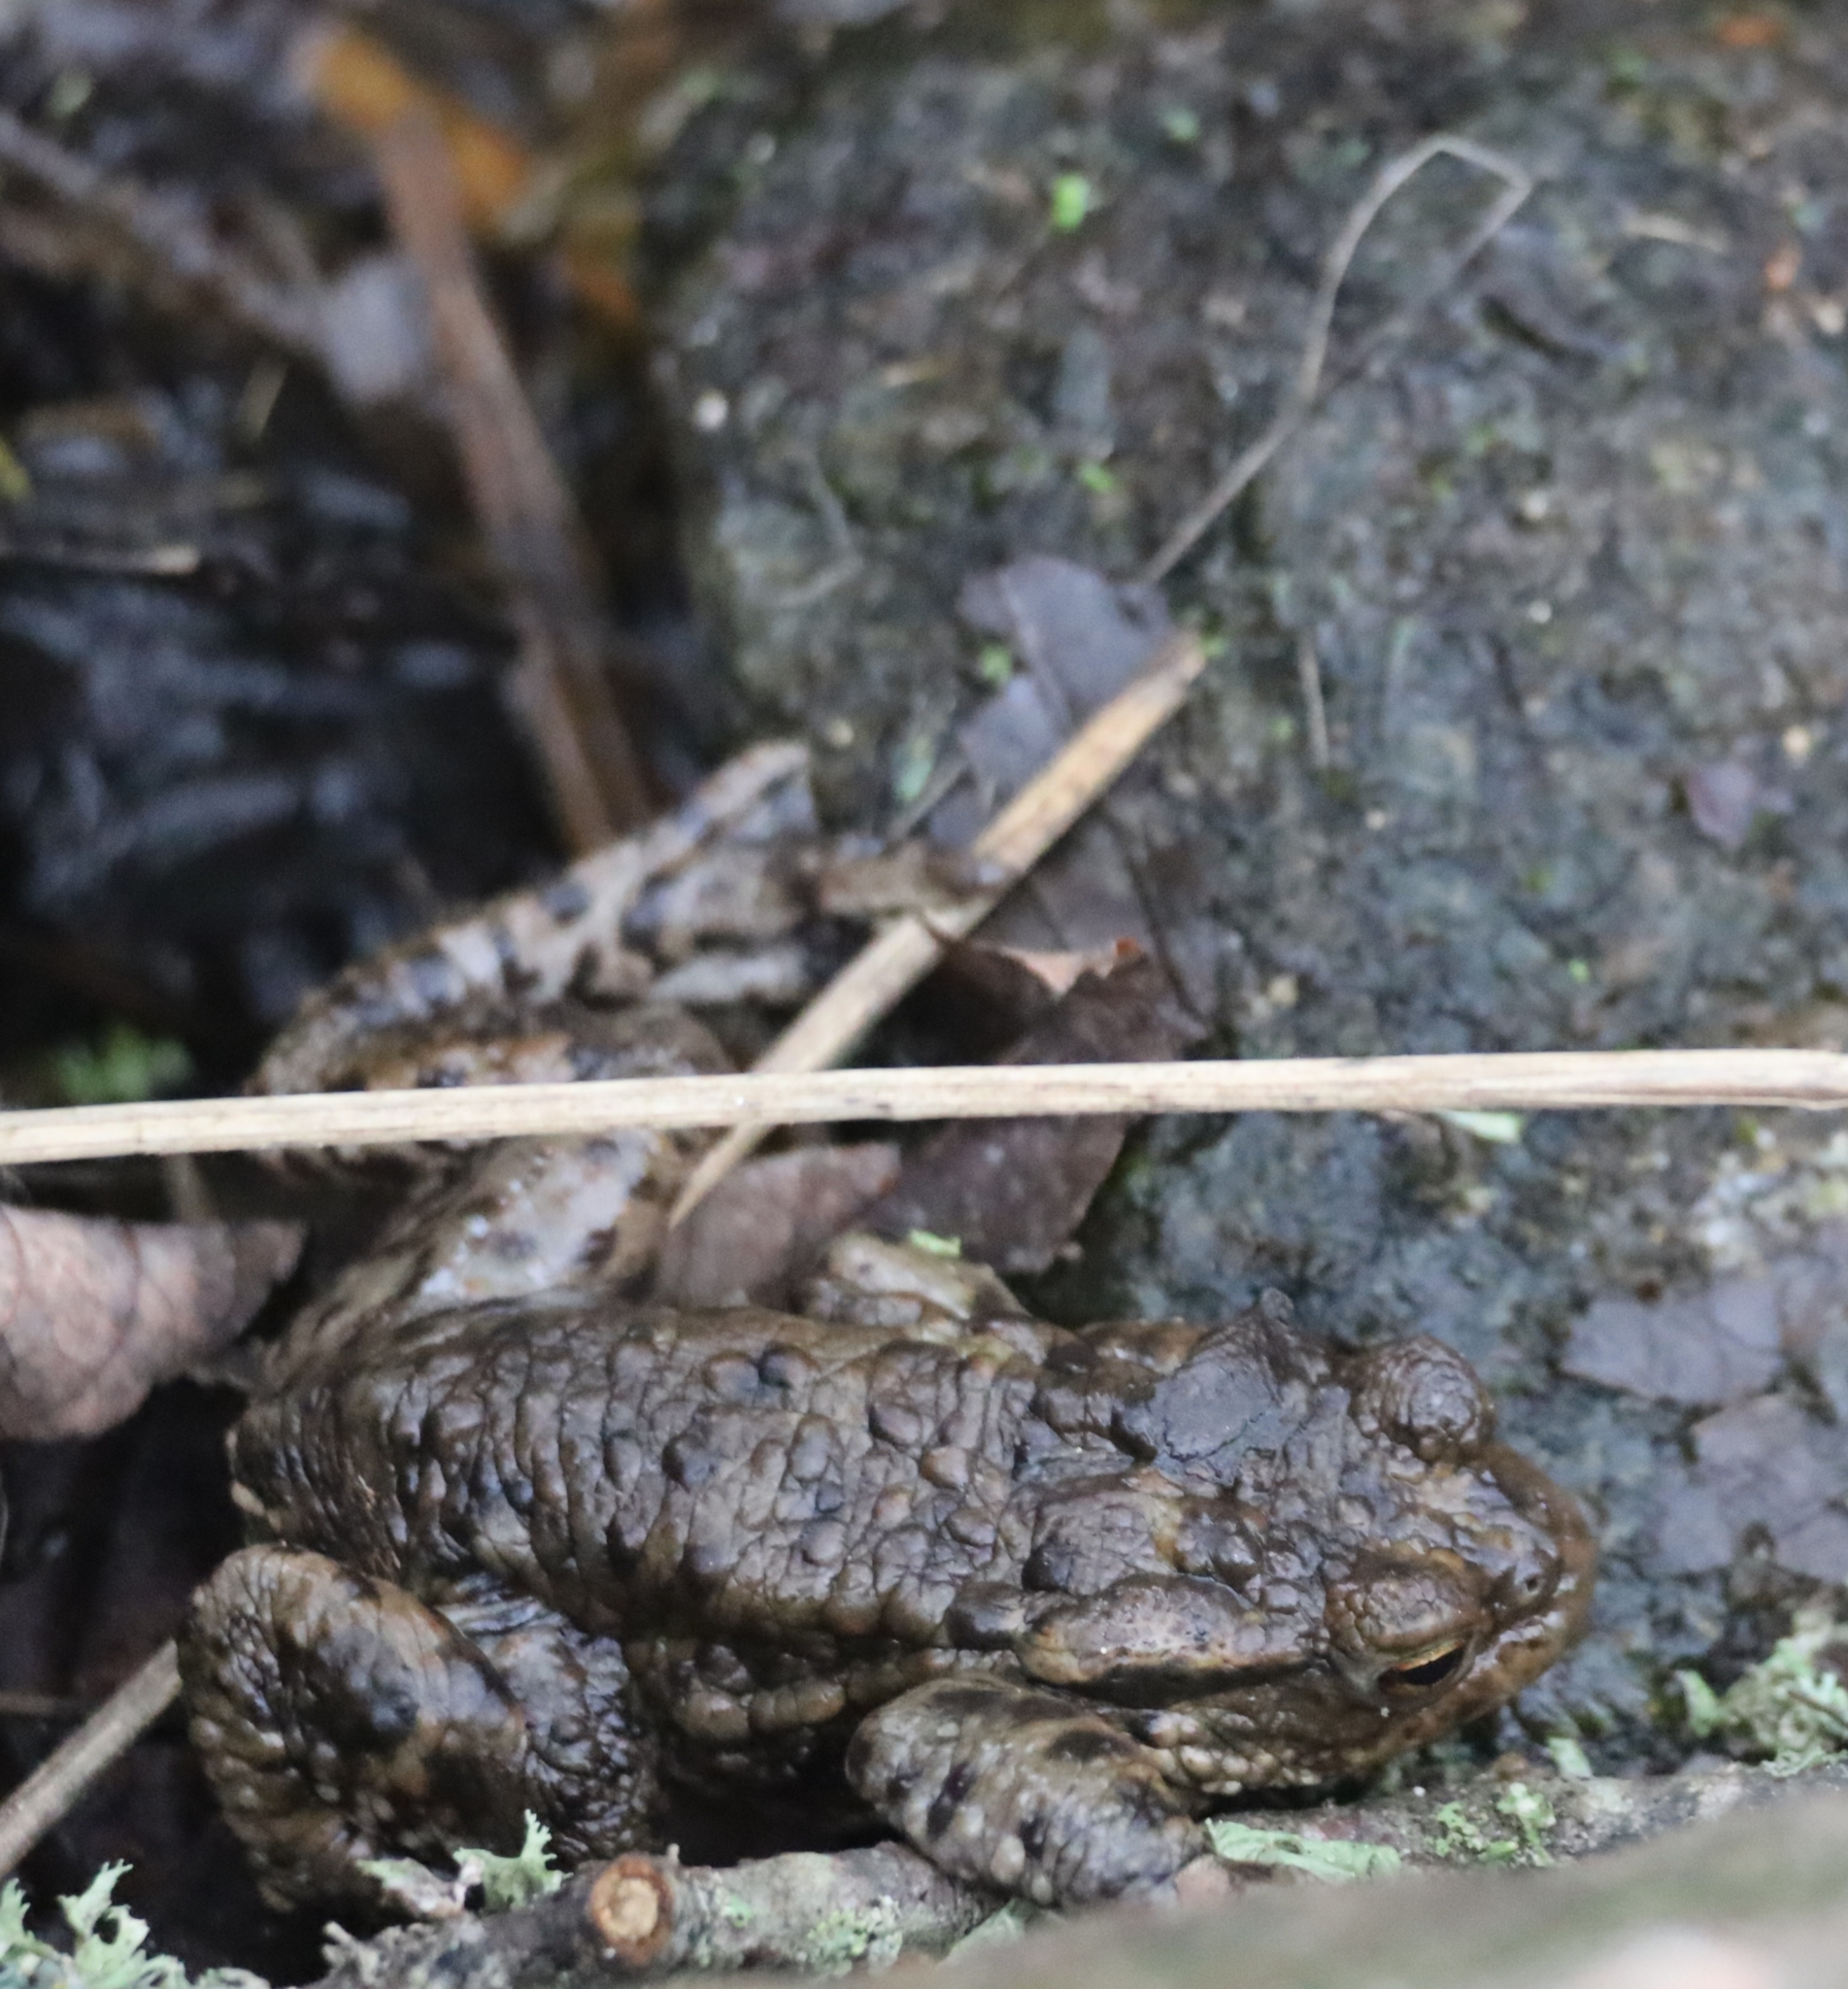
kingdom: Animalia
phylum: Chordata
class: Amphibia
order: Anura
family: Bufonidae
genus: Bufo
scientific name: Bufo bufo
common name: Common toad
